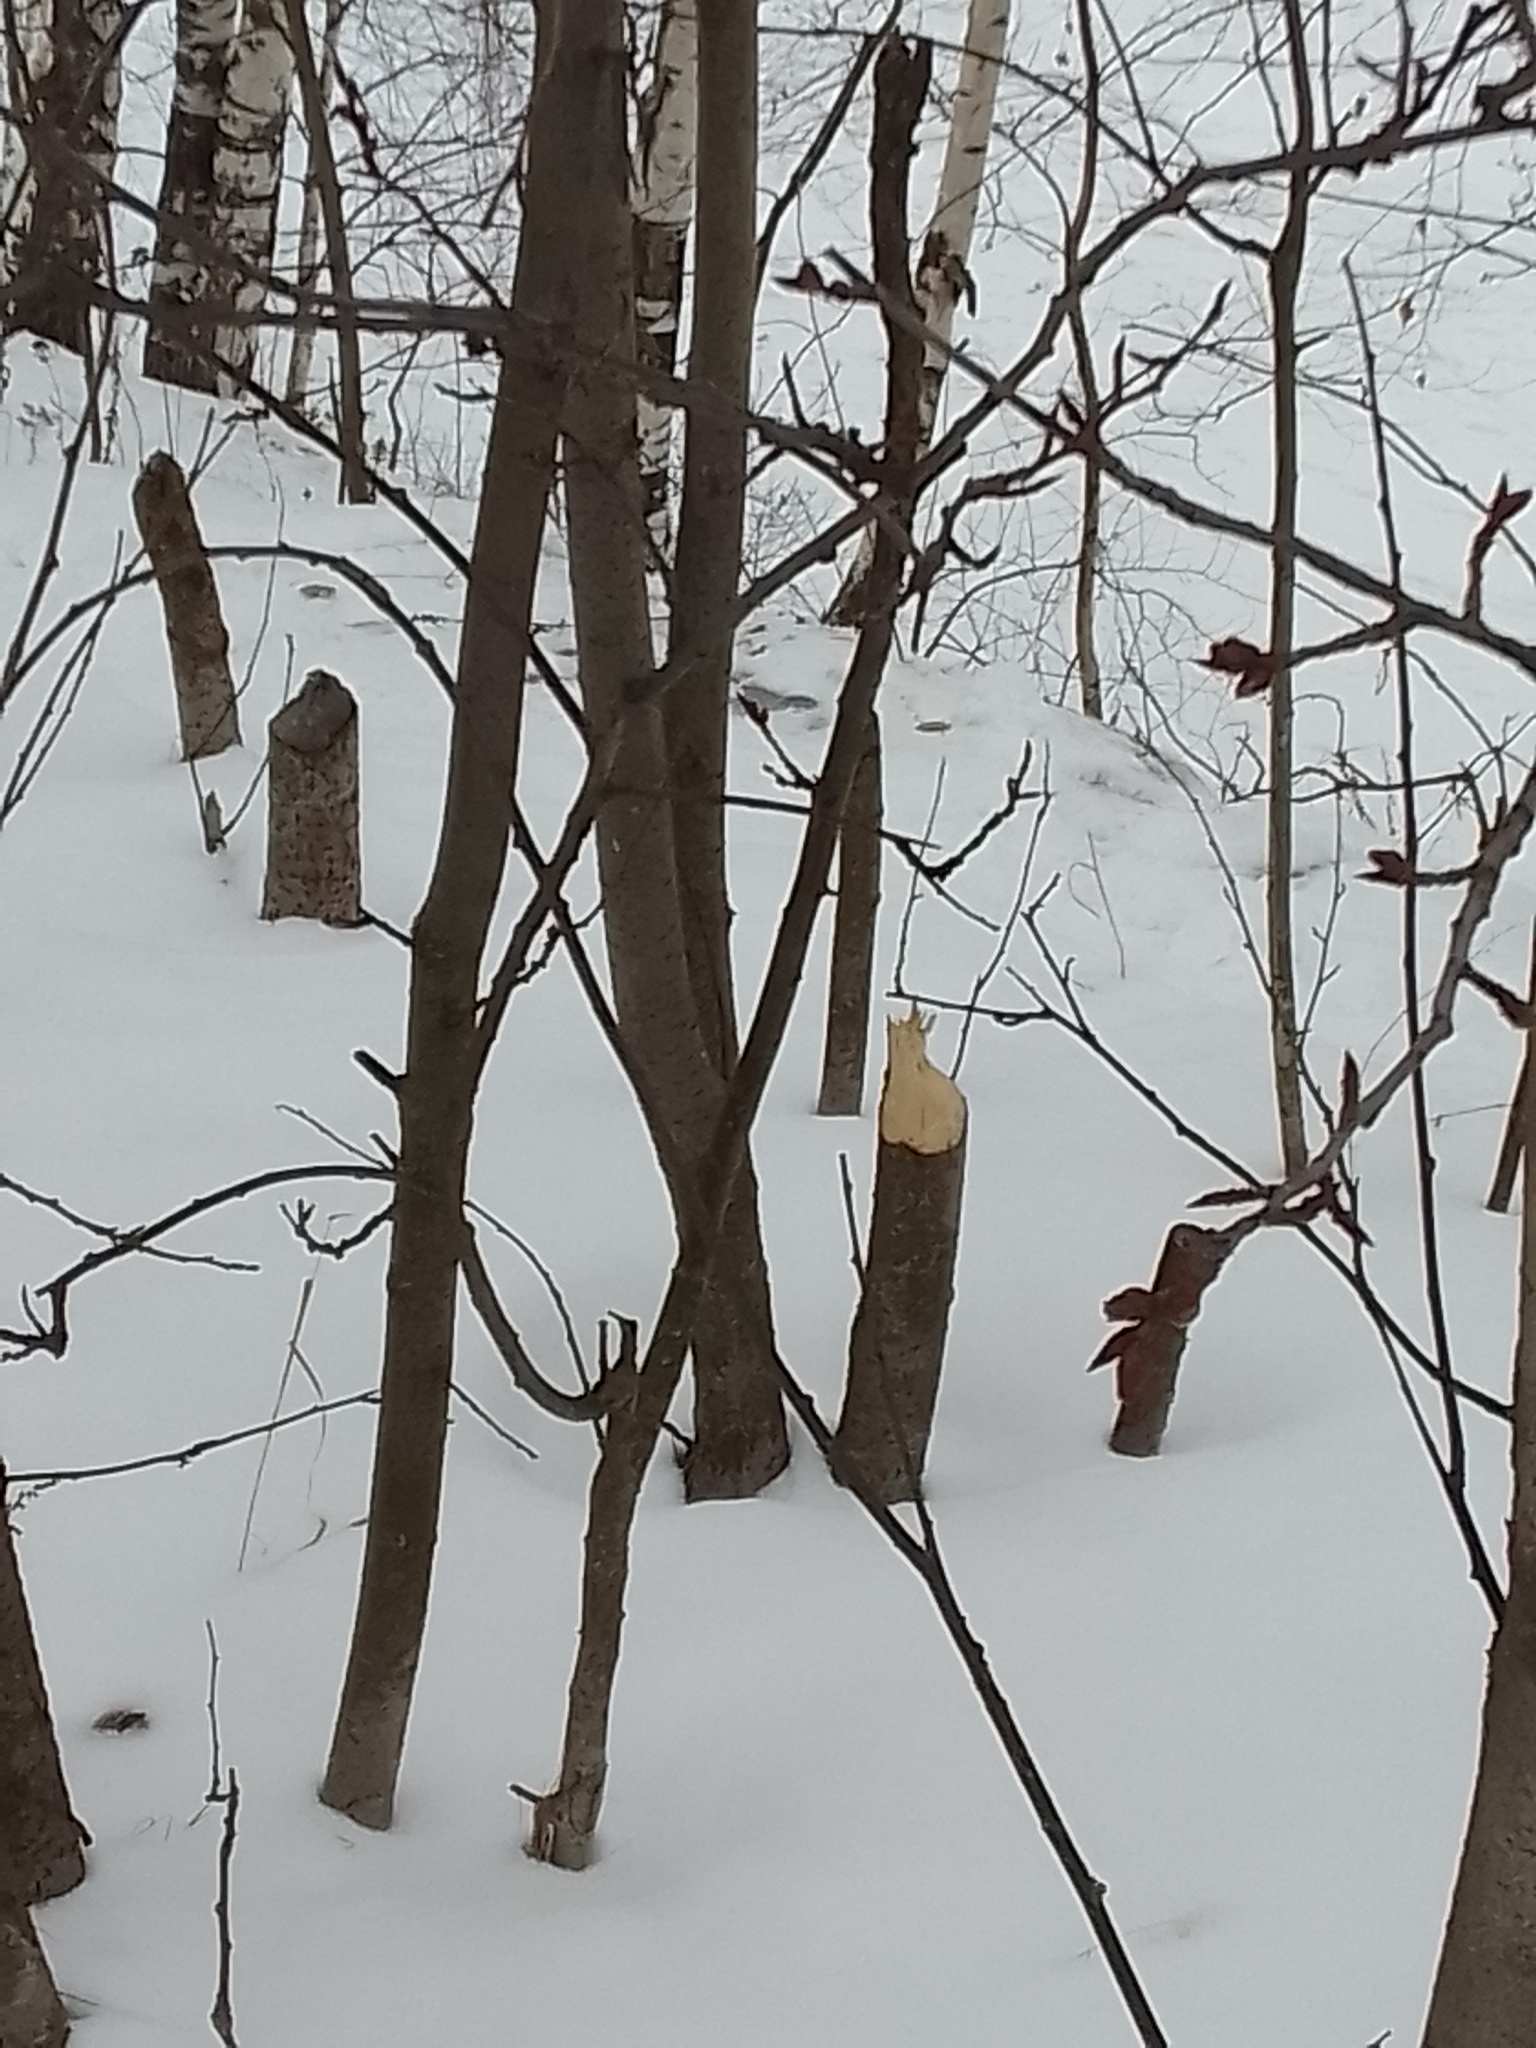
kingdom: Animalia
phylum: Chordata
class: Mammalia
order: Rodentia
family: Castoridae
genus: Castor
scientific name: Castor fiber
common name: Eurasian beaver
